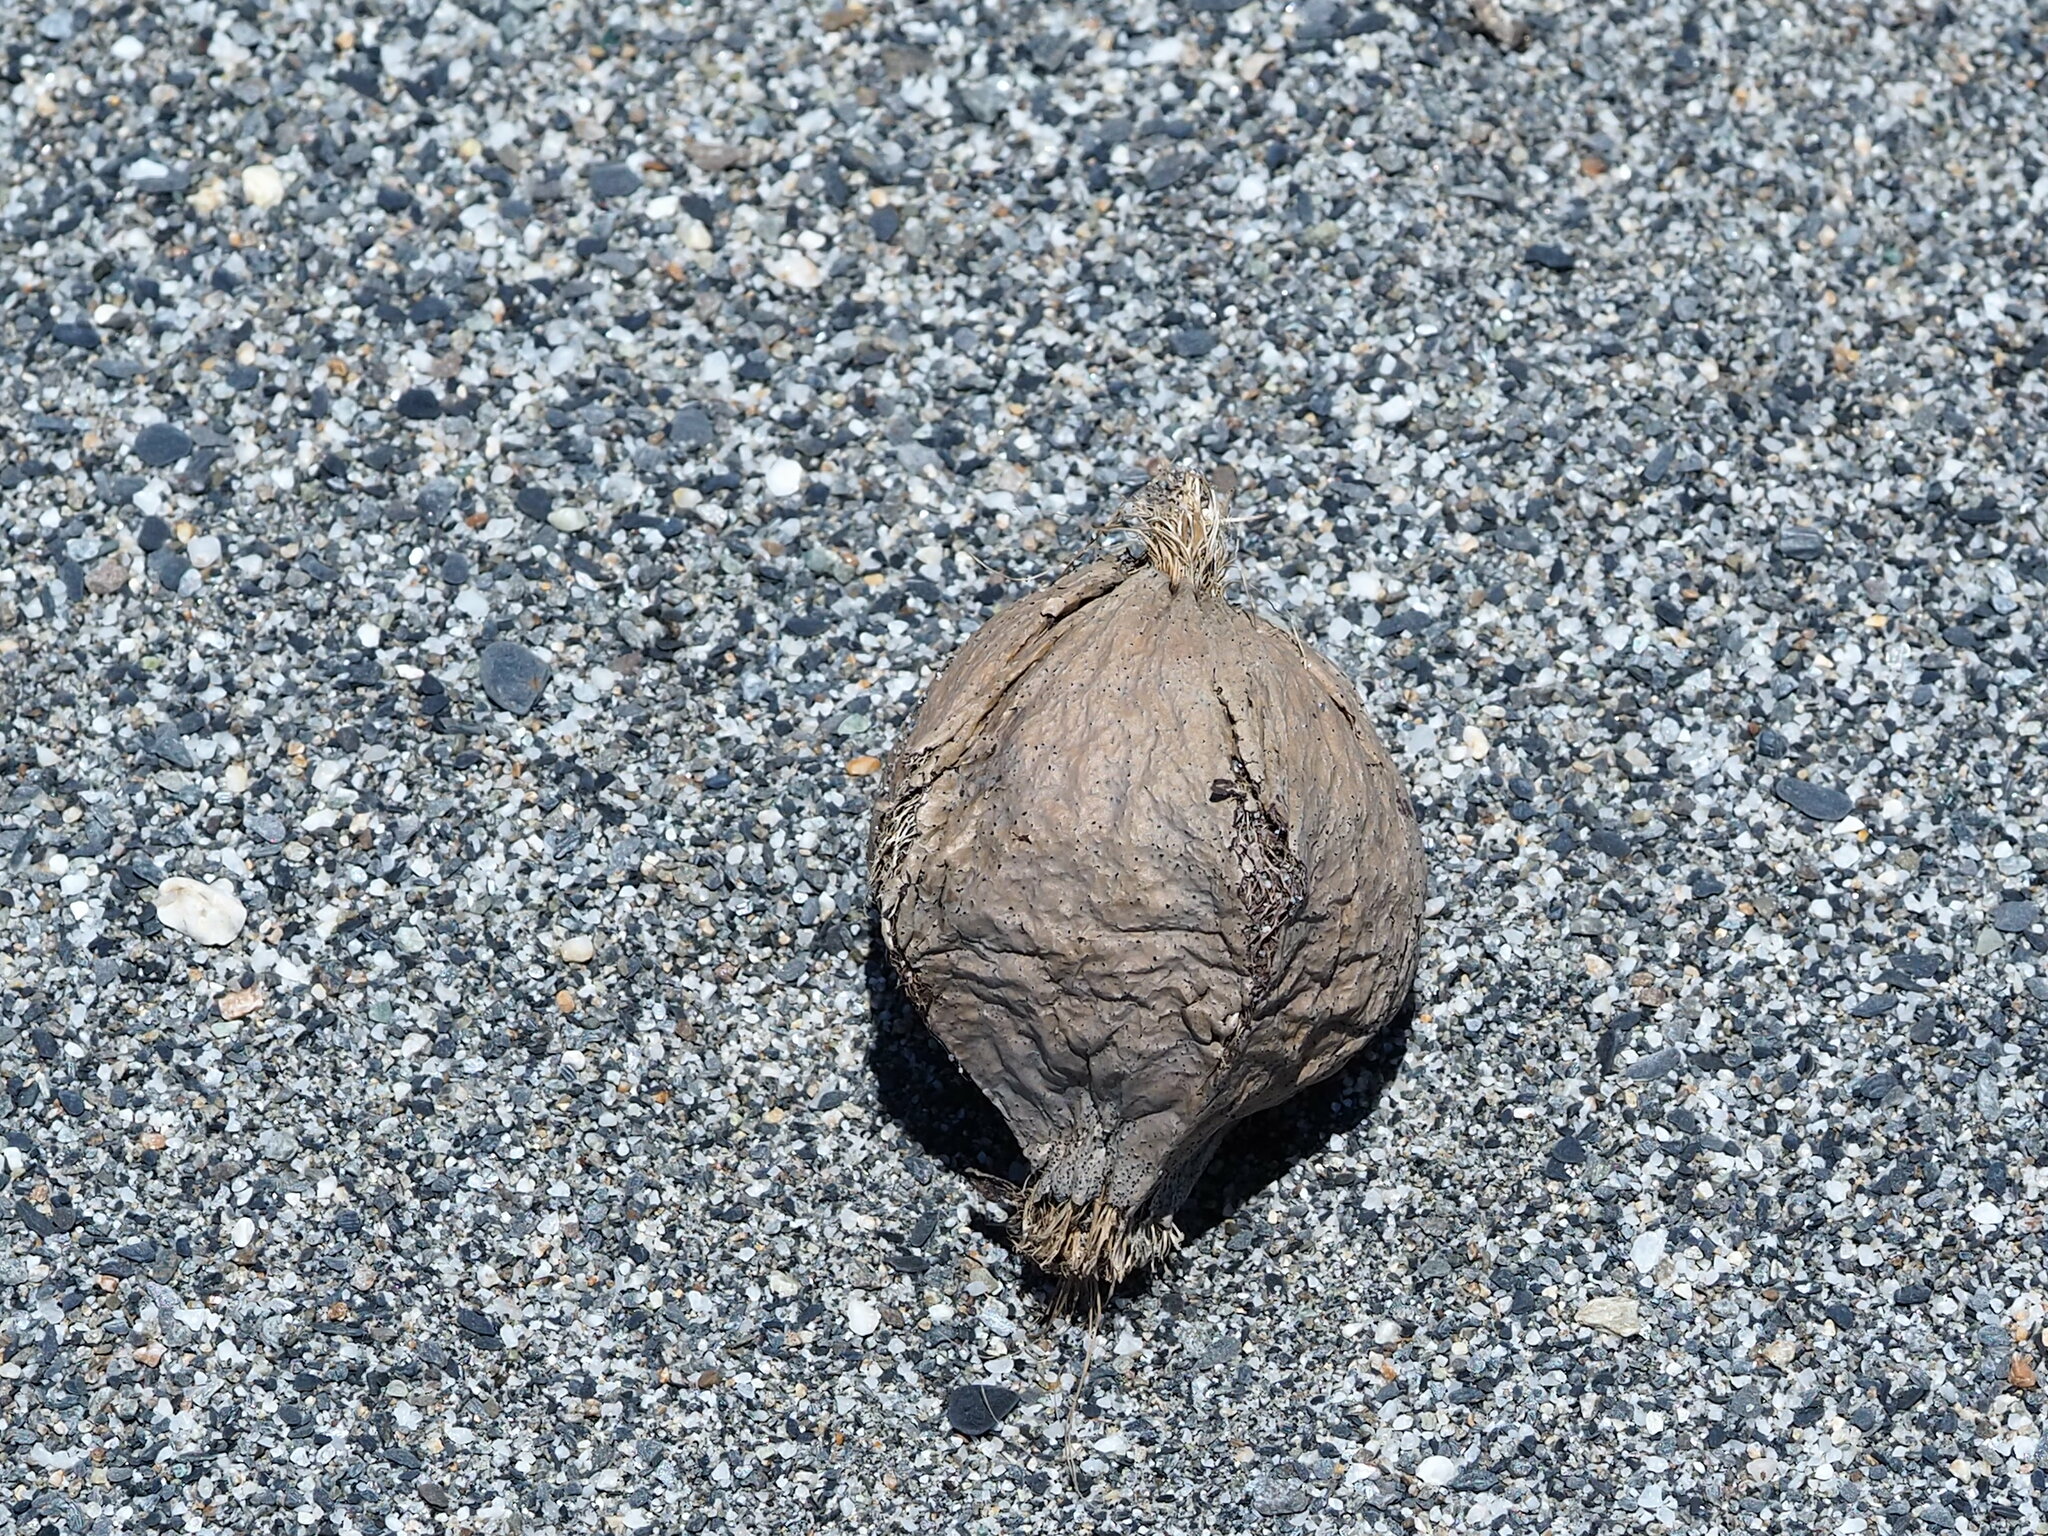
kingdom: Plantae
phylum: Tracheophyta
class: Magnoliopsida
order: Ericales
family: Lecythidaceae
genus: Barringtonia
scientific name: Barringtonia asiatica
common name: Mango-pine
